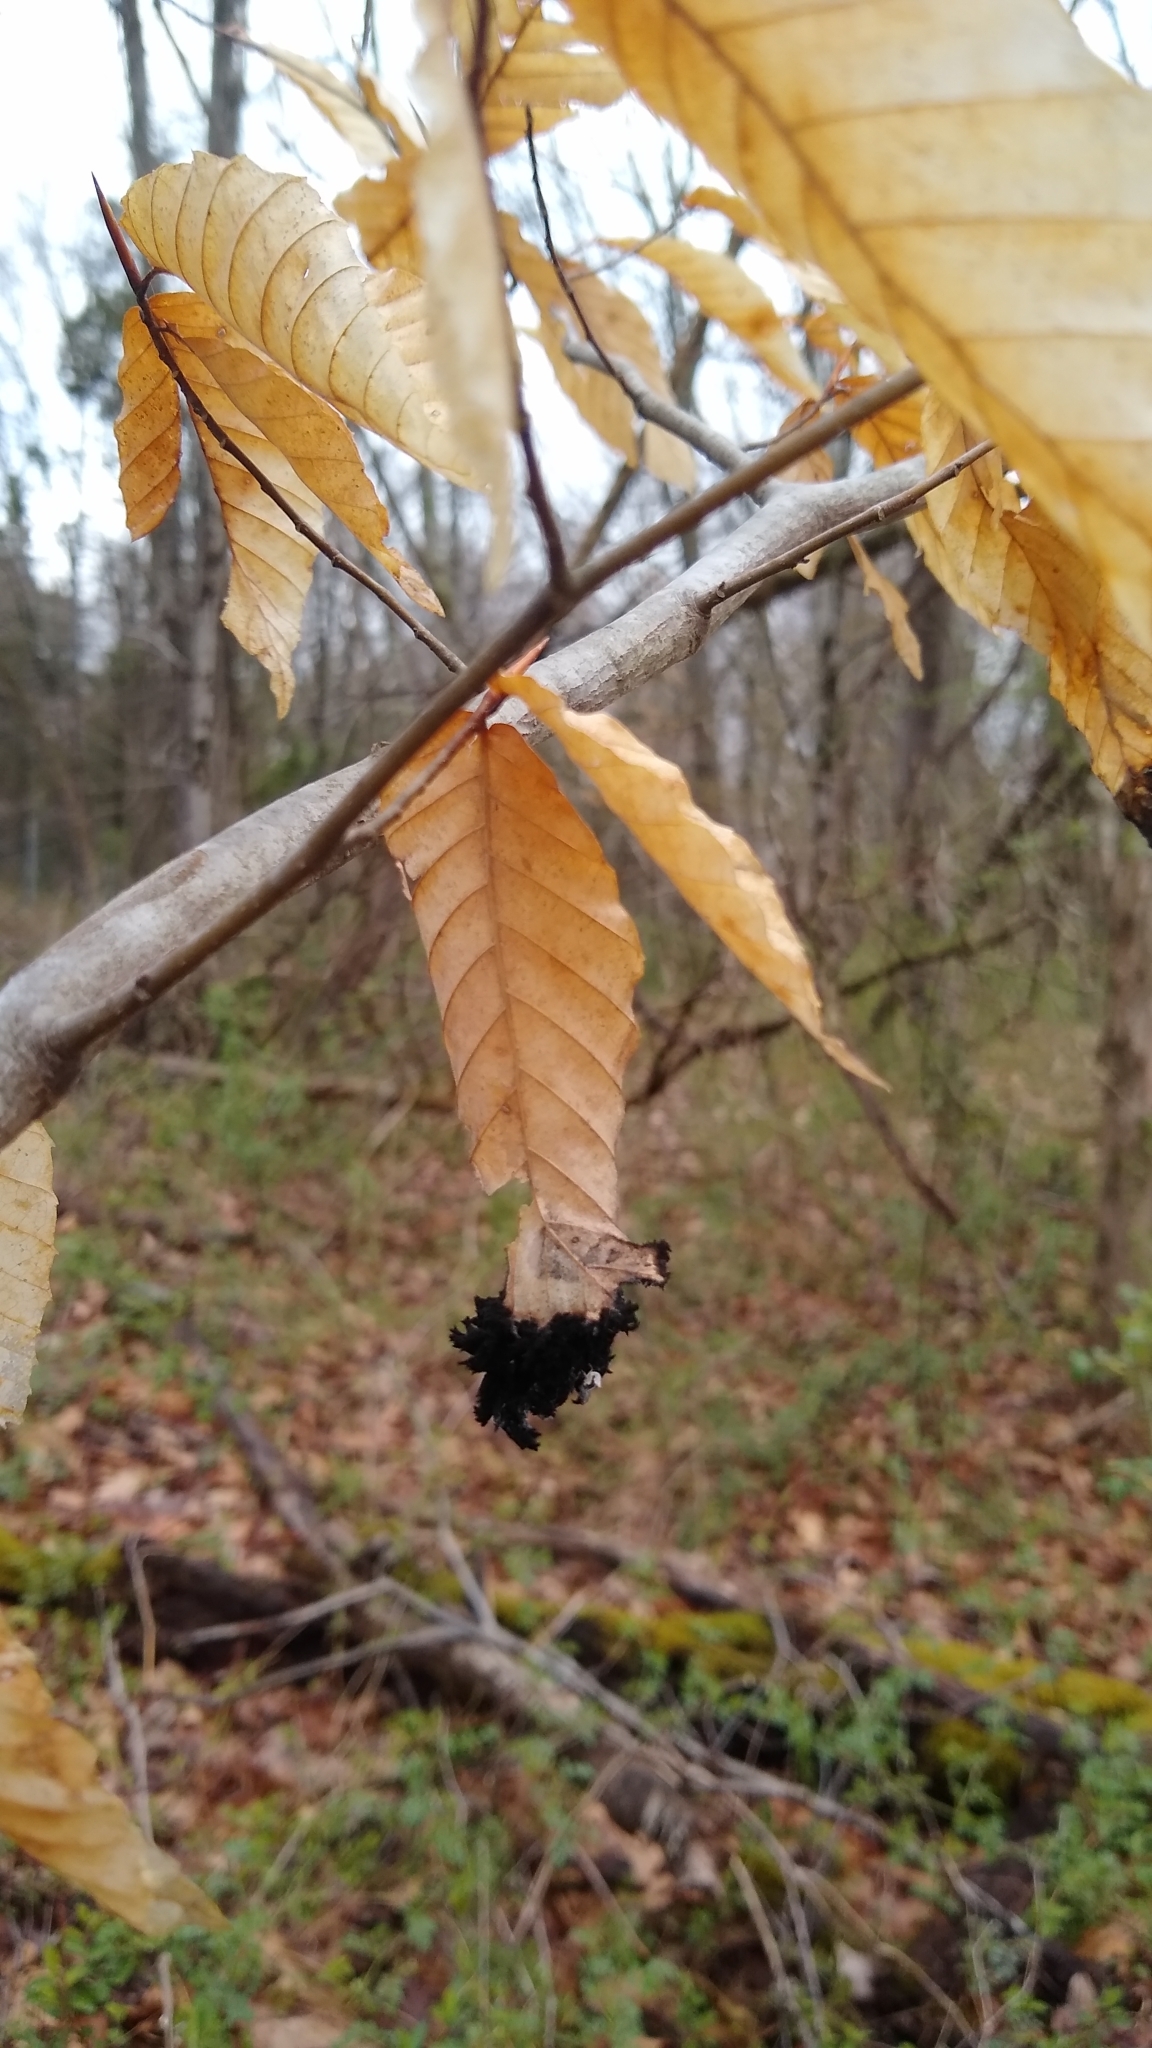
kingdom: Fungi
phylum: Ascomycota
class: Dothideomycetes
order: Capnodiales
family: Capnodiaceae
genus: Scorias
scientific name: Scorias spongiosa
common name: Black sooty mold
